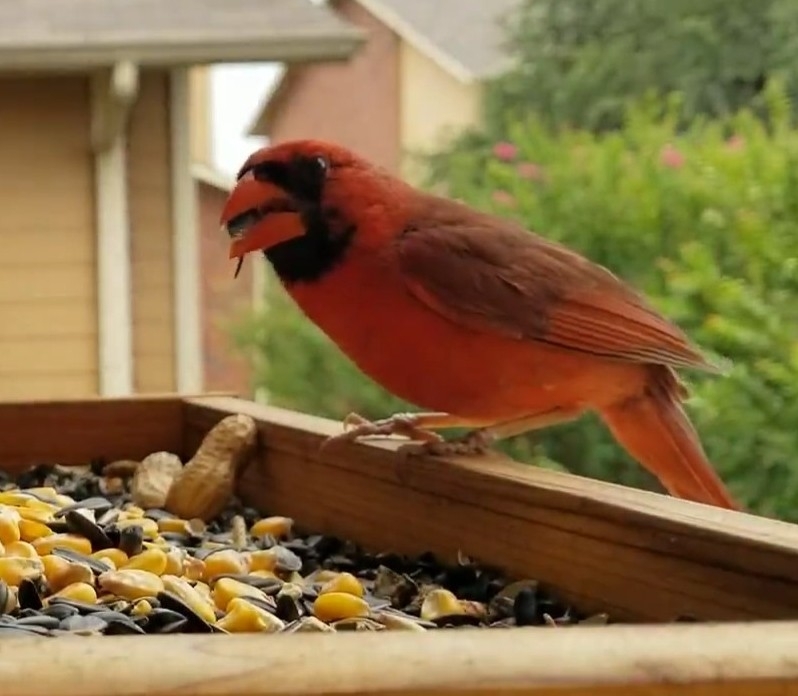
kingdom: Animalia
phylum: Chordata
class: Aves
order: Passeriformes
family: Cardinalidae
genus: Cardinalis
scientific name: Cardinalis cardinalis
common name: Northern cardinal
